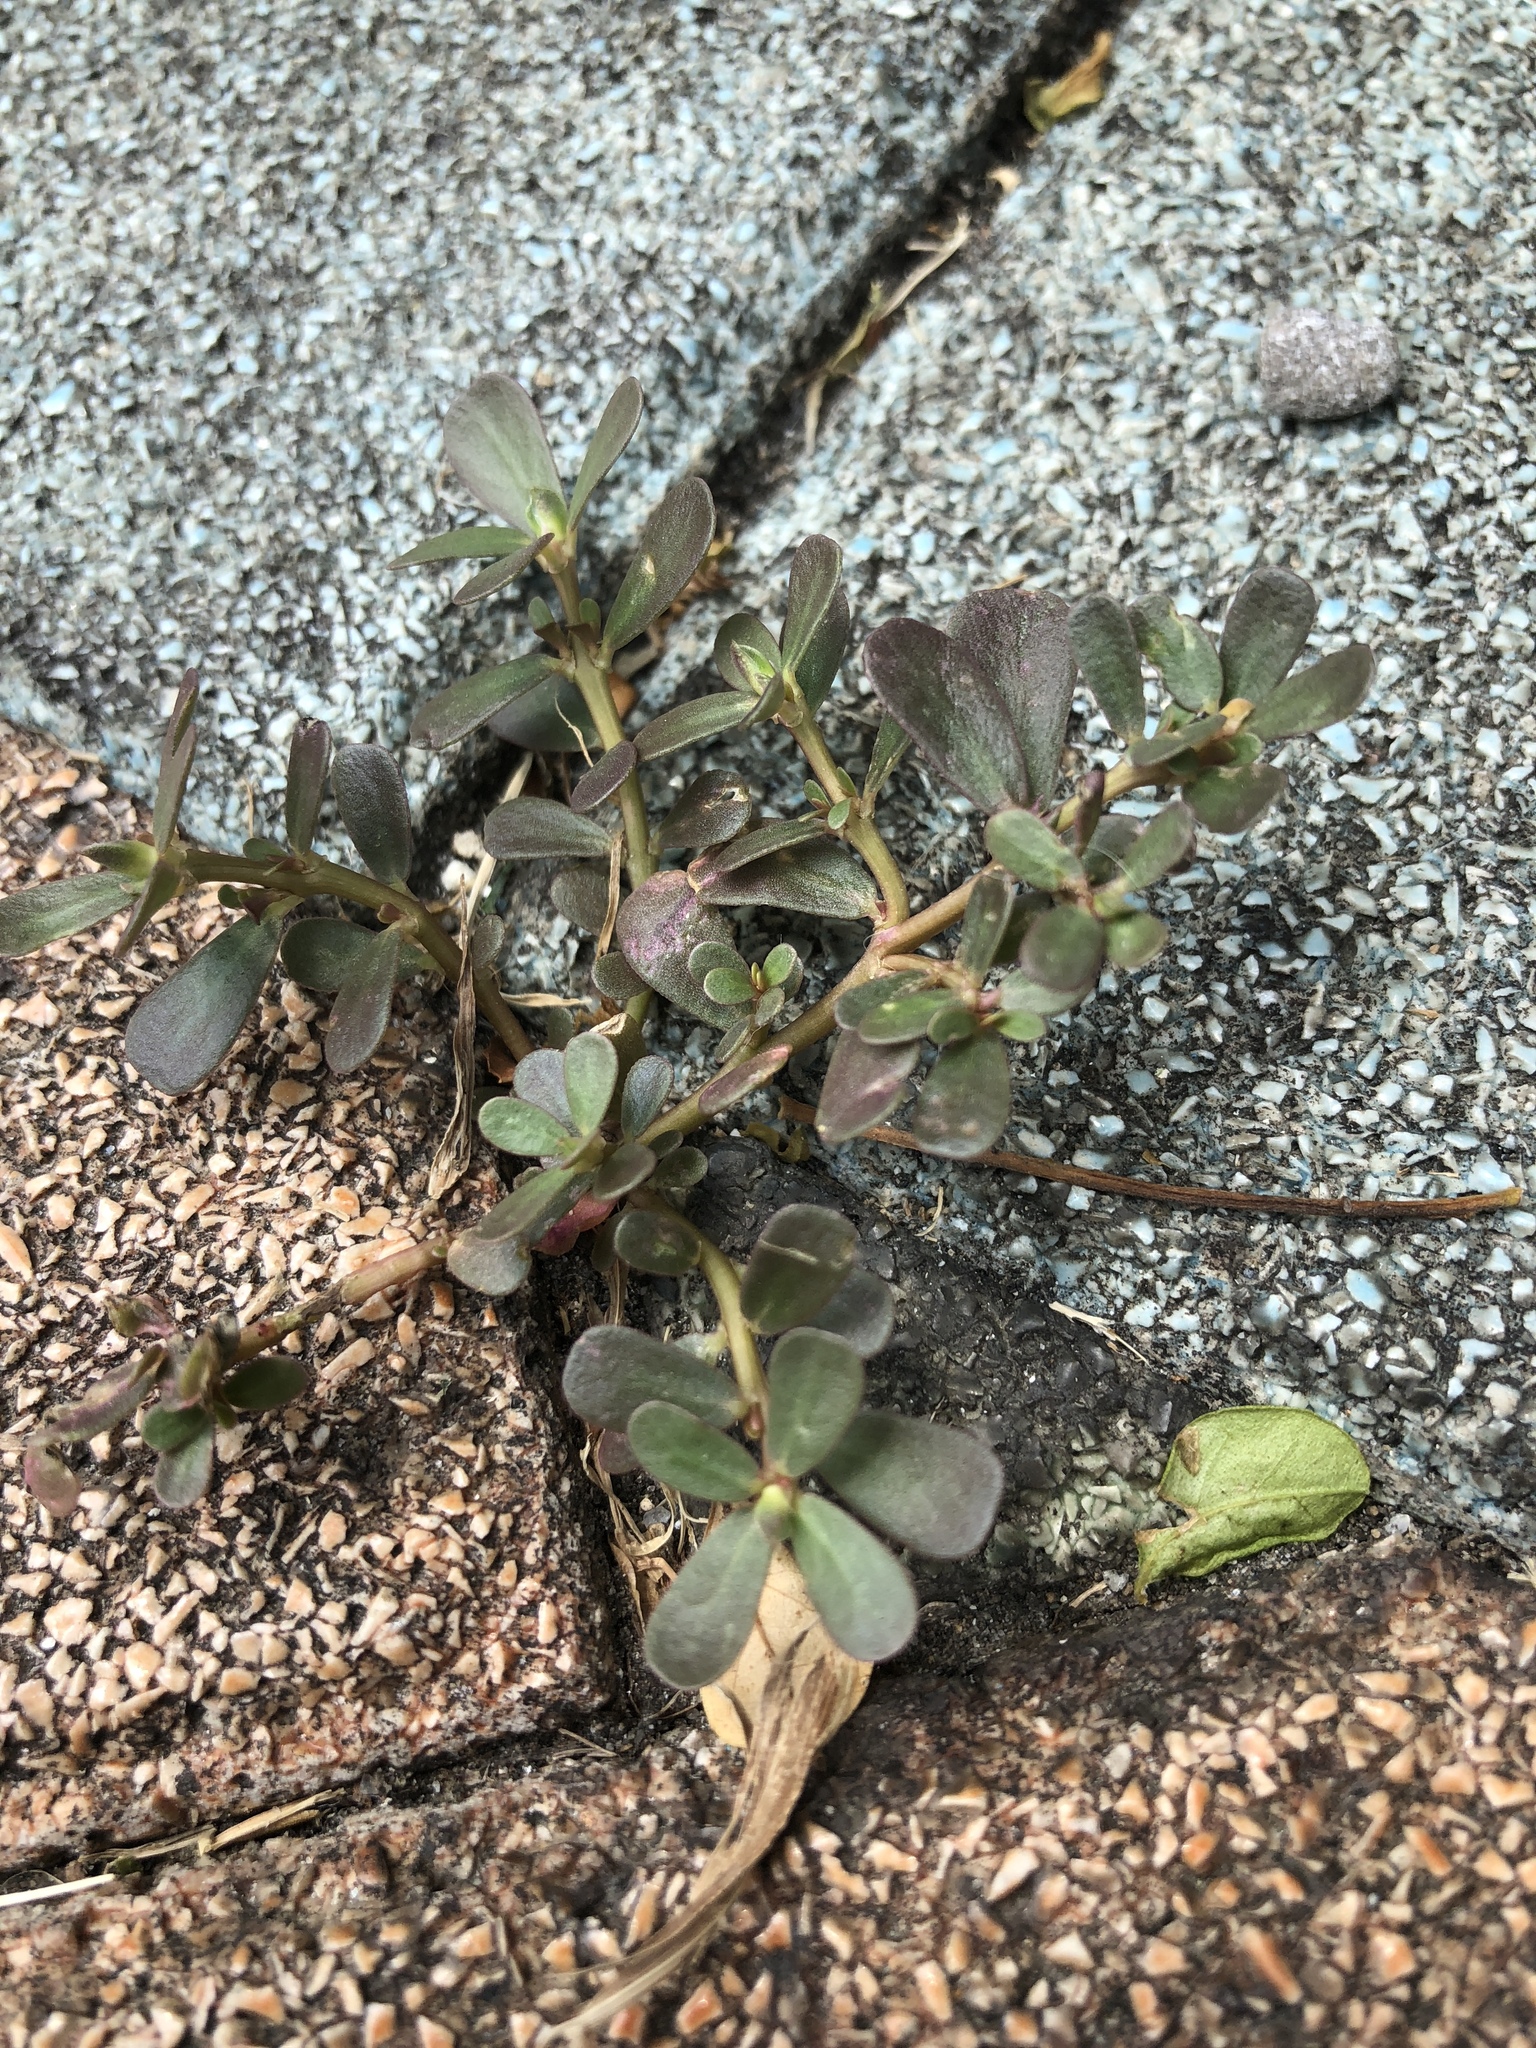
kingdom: Plantae
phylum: Tracheophyta
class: Magnoliopsida
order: Caryophyllales
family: Portulacaceae
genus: Portulaca
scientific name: Portulaca oleracea
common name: Common purslane
